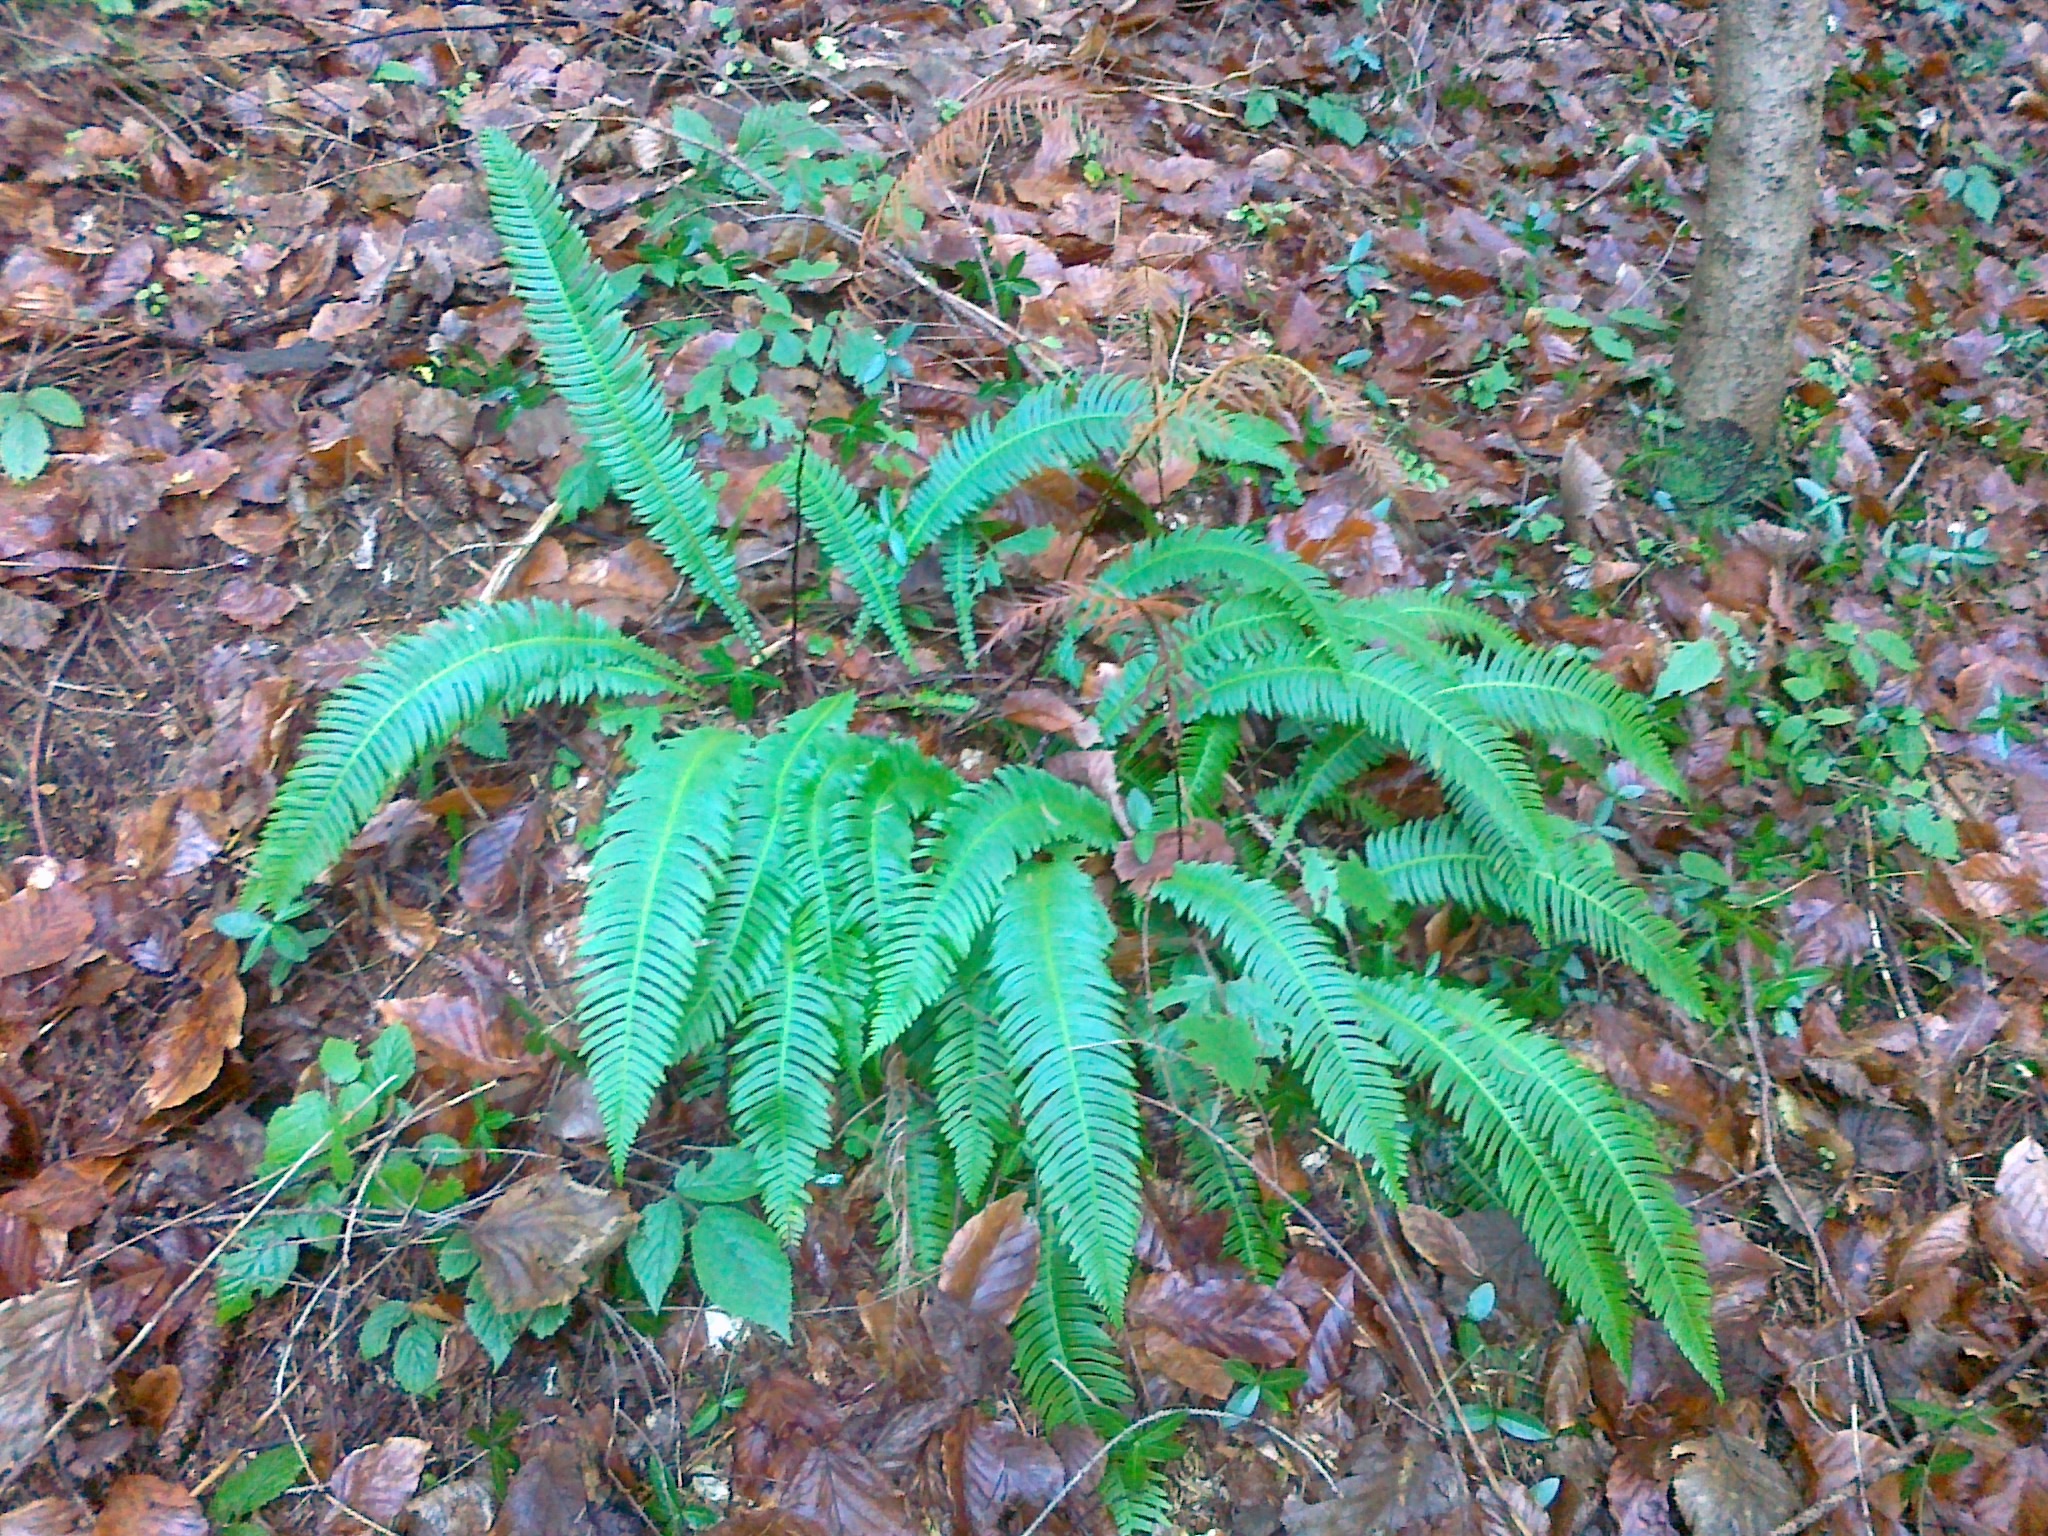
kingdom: Plantae
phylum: Tracheophyta
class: Polypodiopsida
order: Polypodiales
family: Blechnaceae
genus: Struthiopteris
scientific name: Struthiopteris spicant
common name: Deer fern
